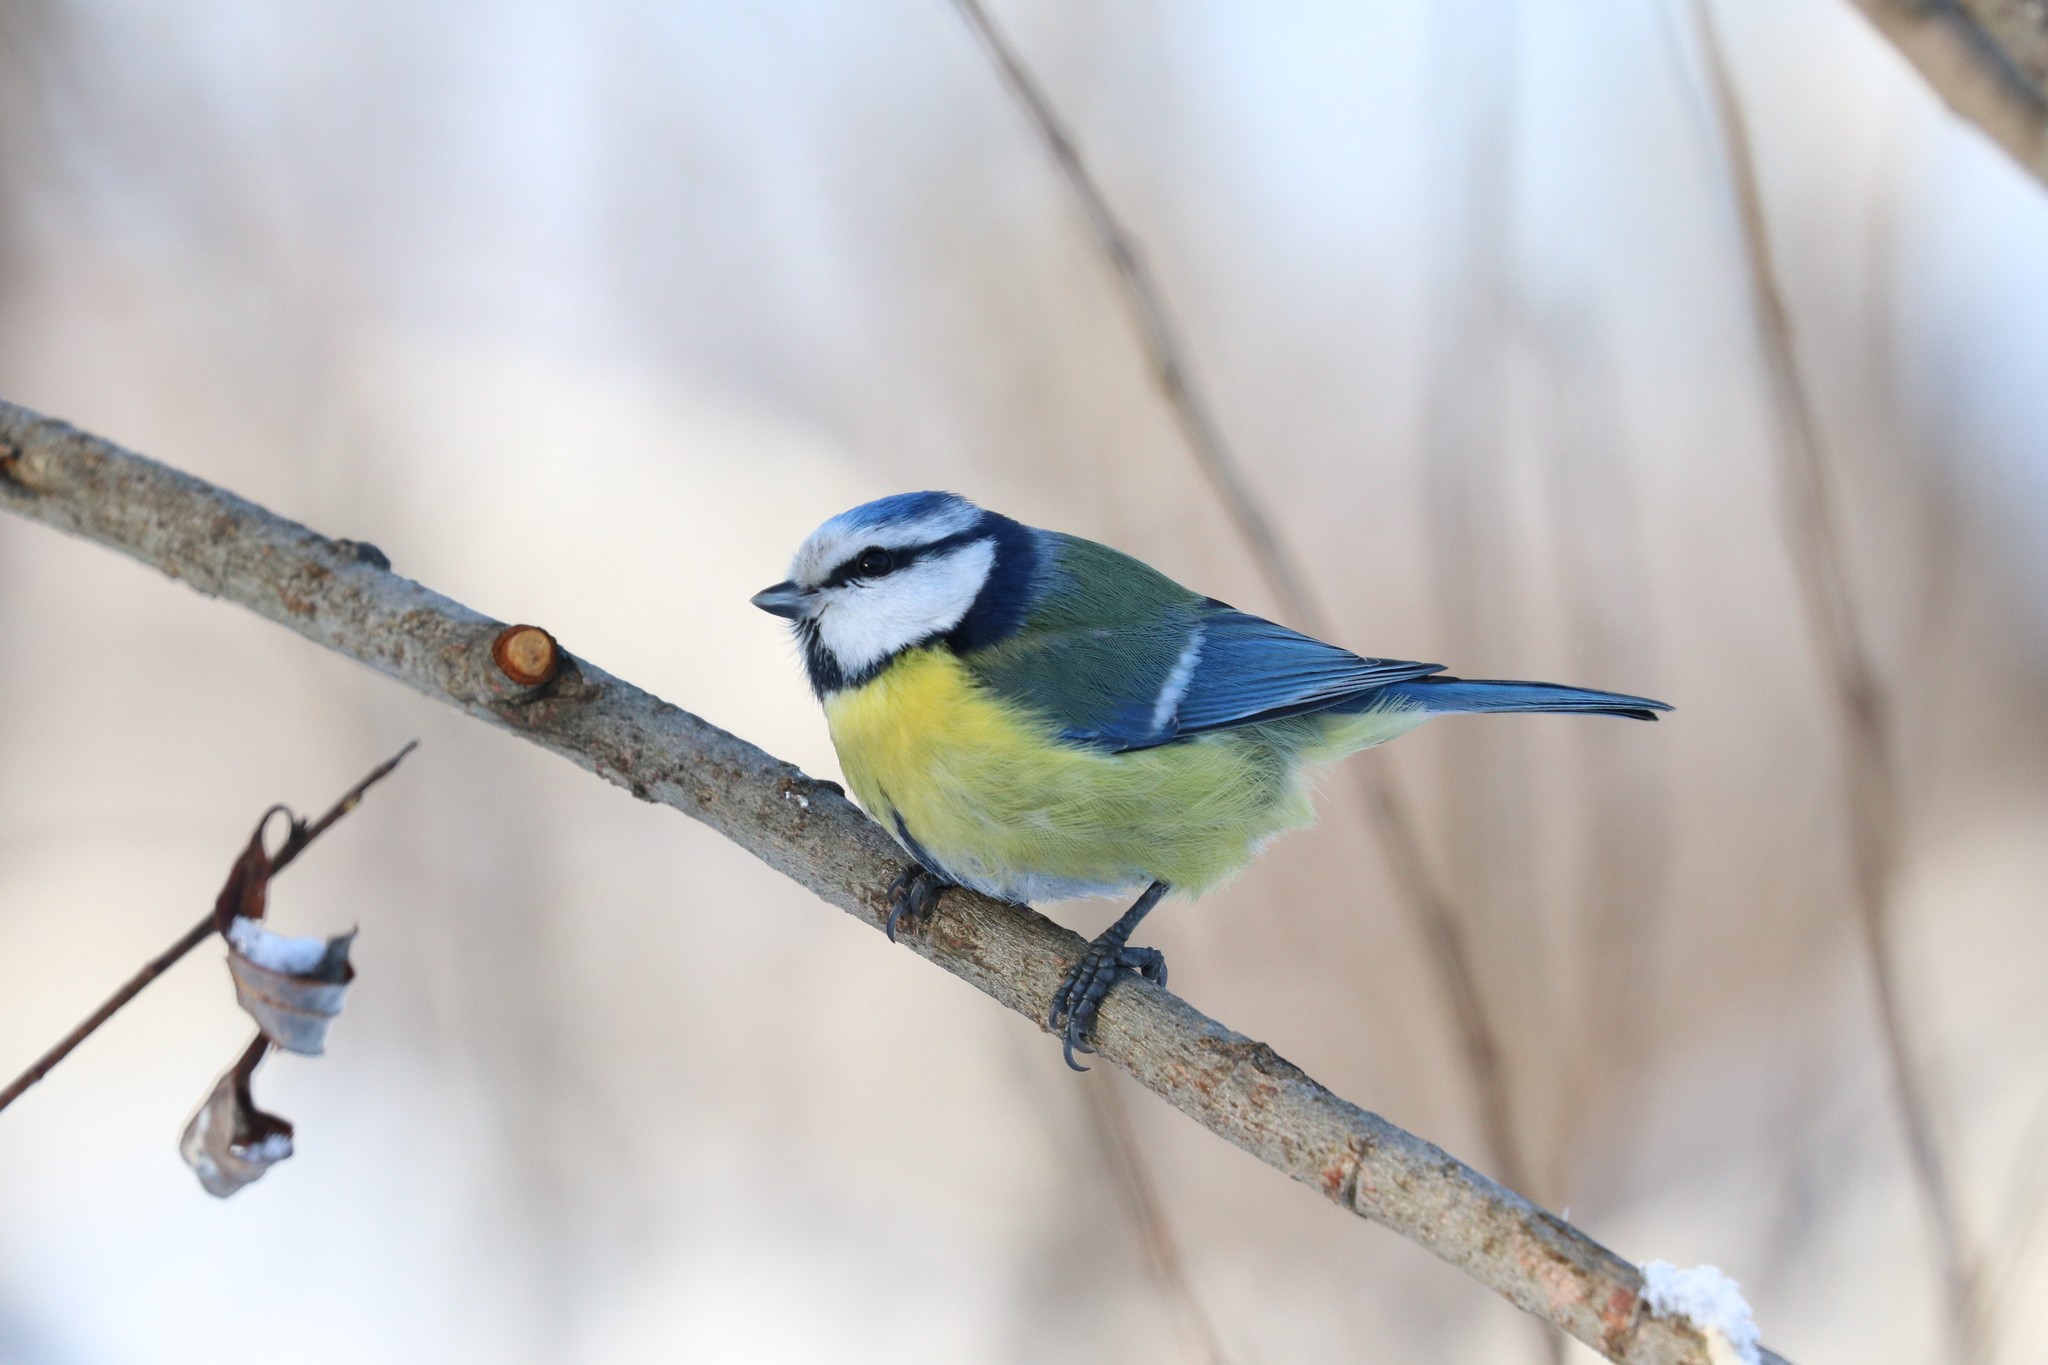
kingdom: Animalia
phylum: Chordata
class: Aves
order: Passeriformes
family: Paridae
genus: Cyanistes
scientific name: Cyanistes caeruleus
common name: Eurasian blue tit
